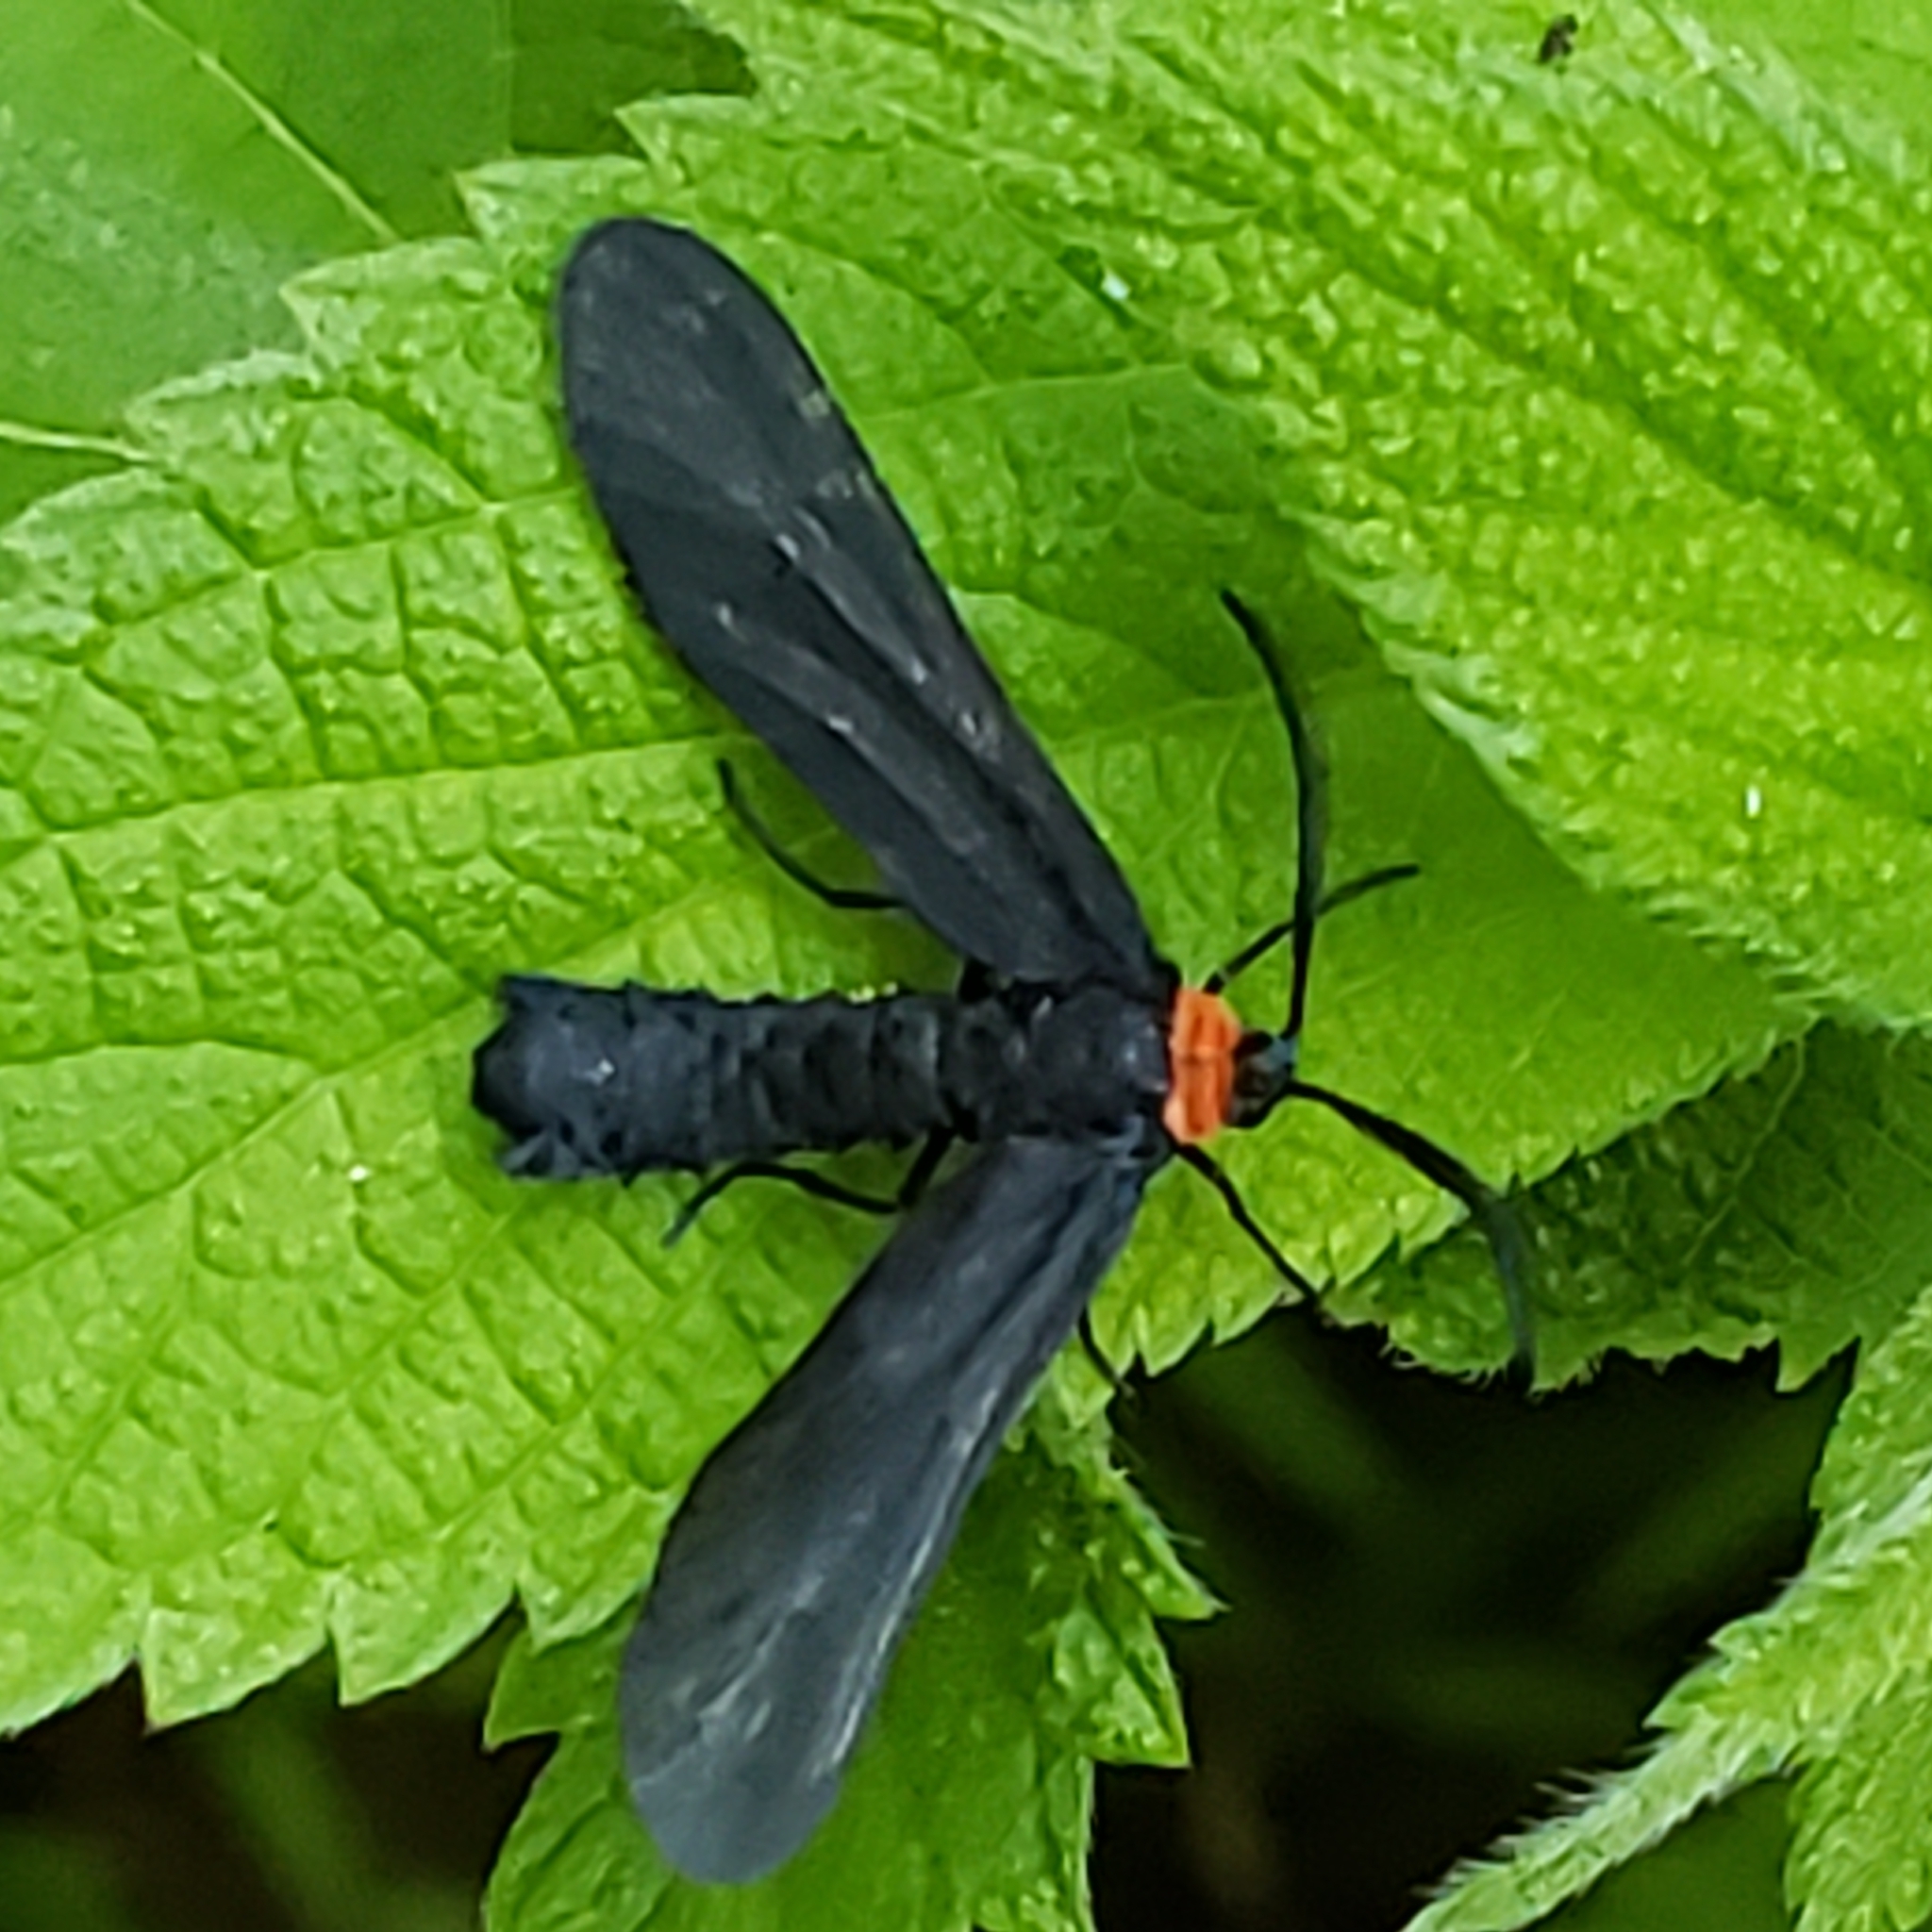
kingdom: Animalia
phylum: Arthropoda
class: Insecta
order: Lepidoptera
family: Zygaenidae
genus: Harrisina
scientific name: Harrisina americana
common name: Grapeleaf skeletonizer moth
